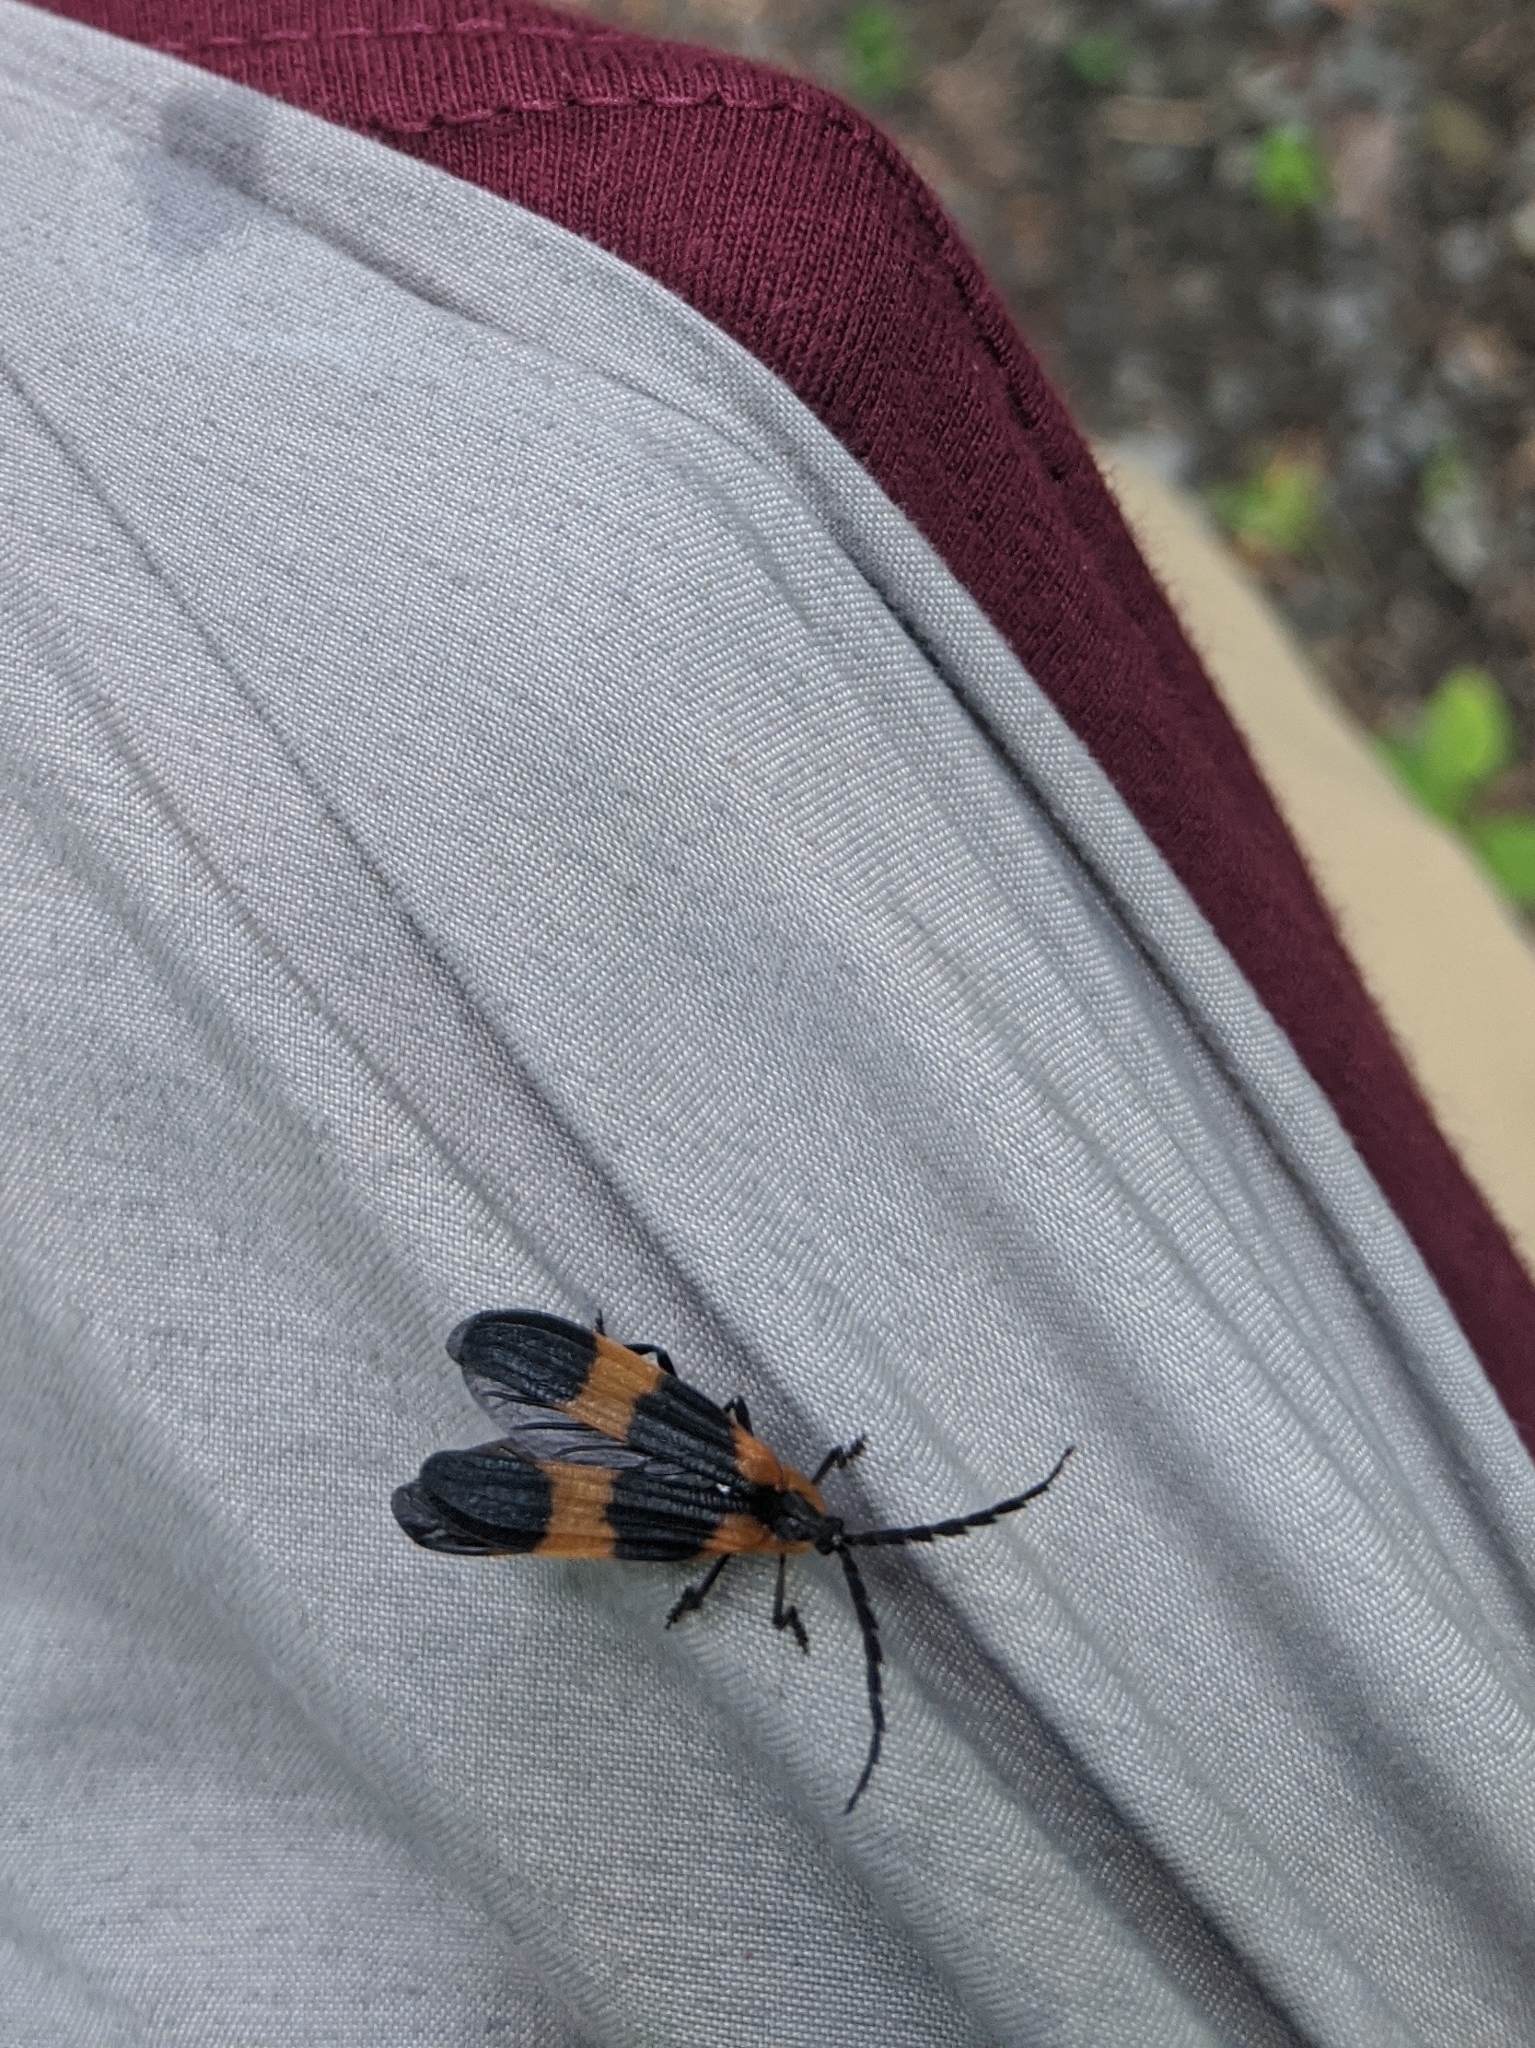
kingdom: Animalia
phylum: Arthropoda
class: Insecta
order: Coleoptera
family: Lycidae
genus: Calopteron
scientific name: Calopteron reticulatum
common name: Banded net-winged beetle
